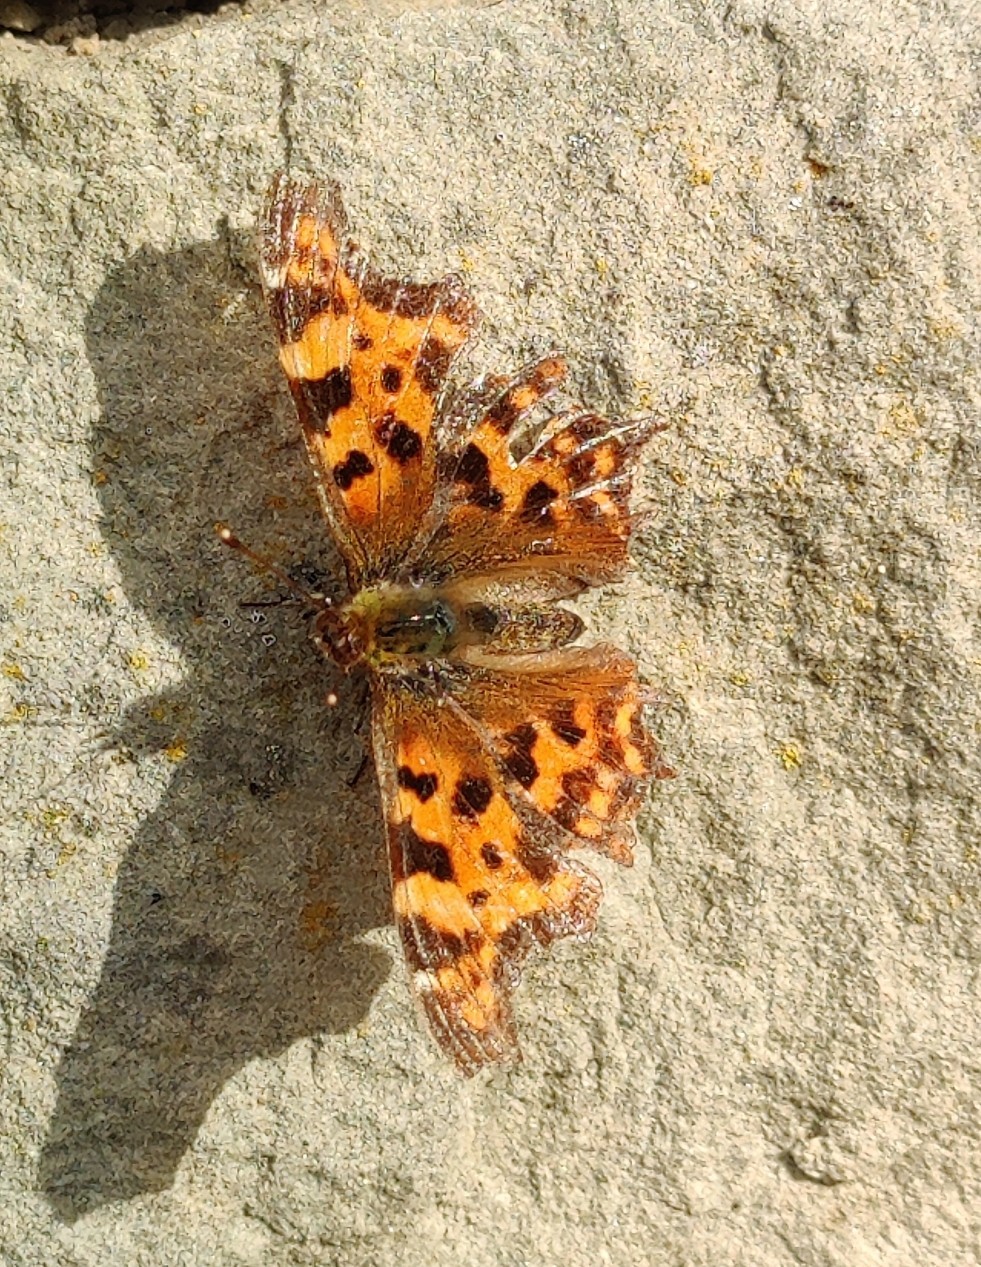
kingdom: Animalia
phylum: Arthropoda
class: Insecta
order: Lepidoptera
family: Nymphalidae
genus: Polygonia
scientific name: Polygonia c-album
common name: Comma
